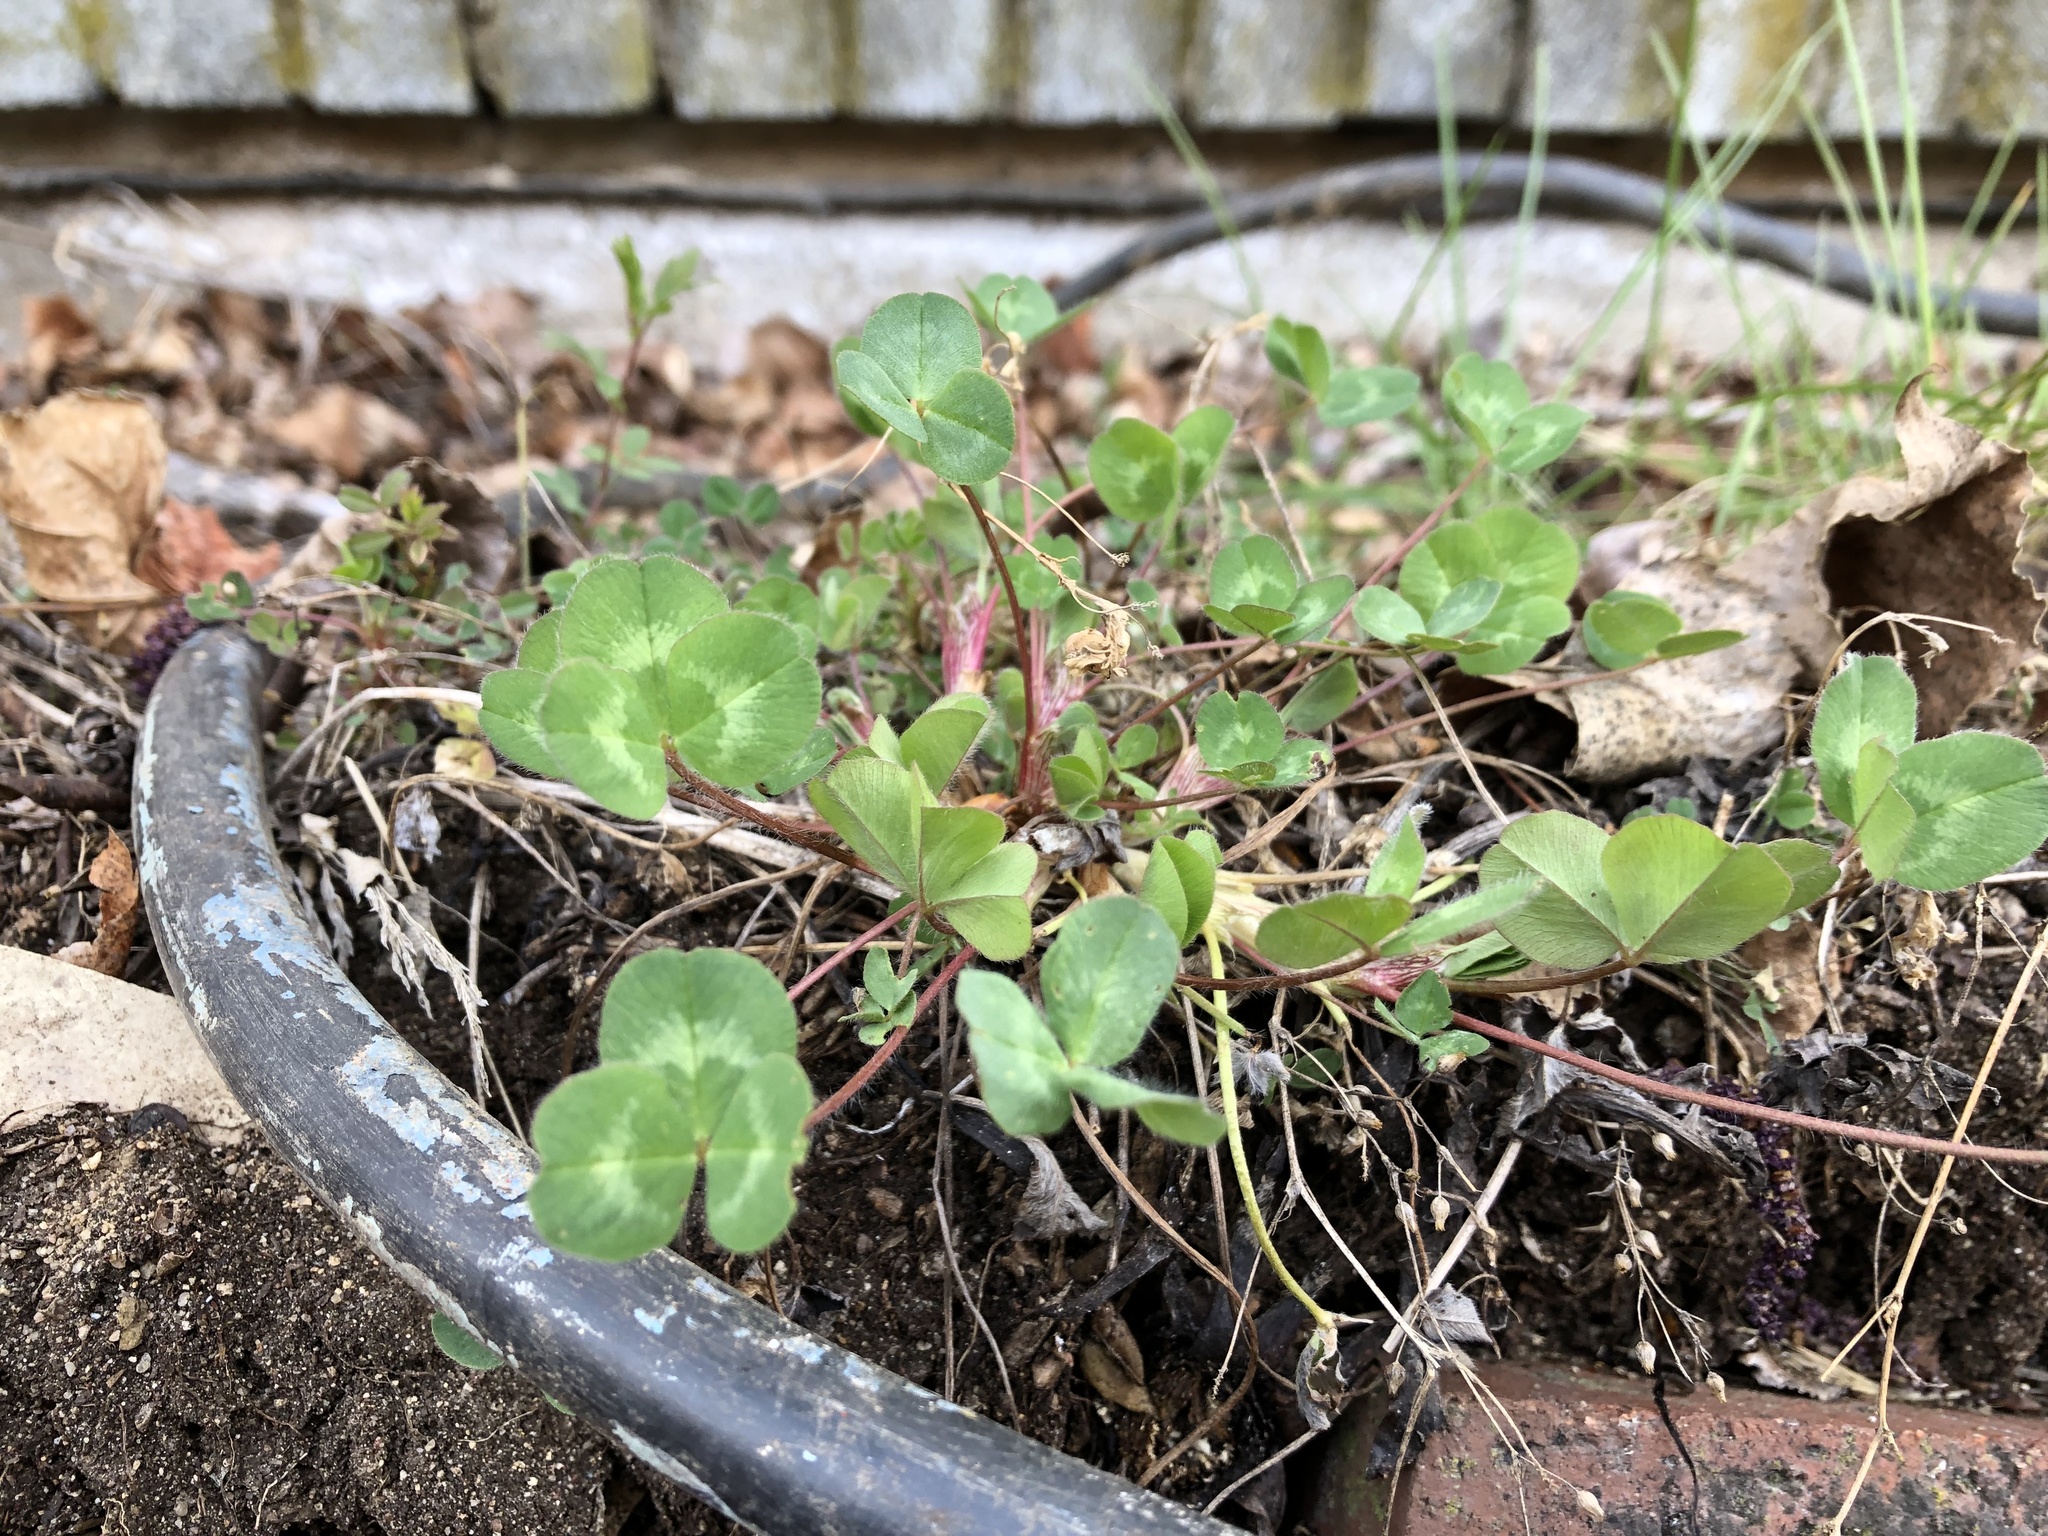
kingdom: Plantae
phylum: Tracheophyta
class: Magnoliopsida
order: Fabales
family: Fabaceae
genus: Trifolium
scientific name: Trifolium pratense
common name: Red clover
